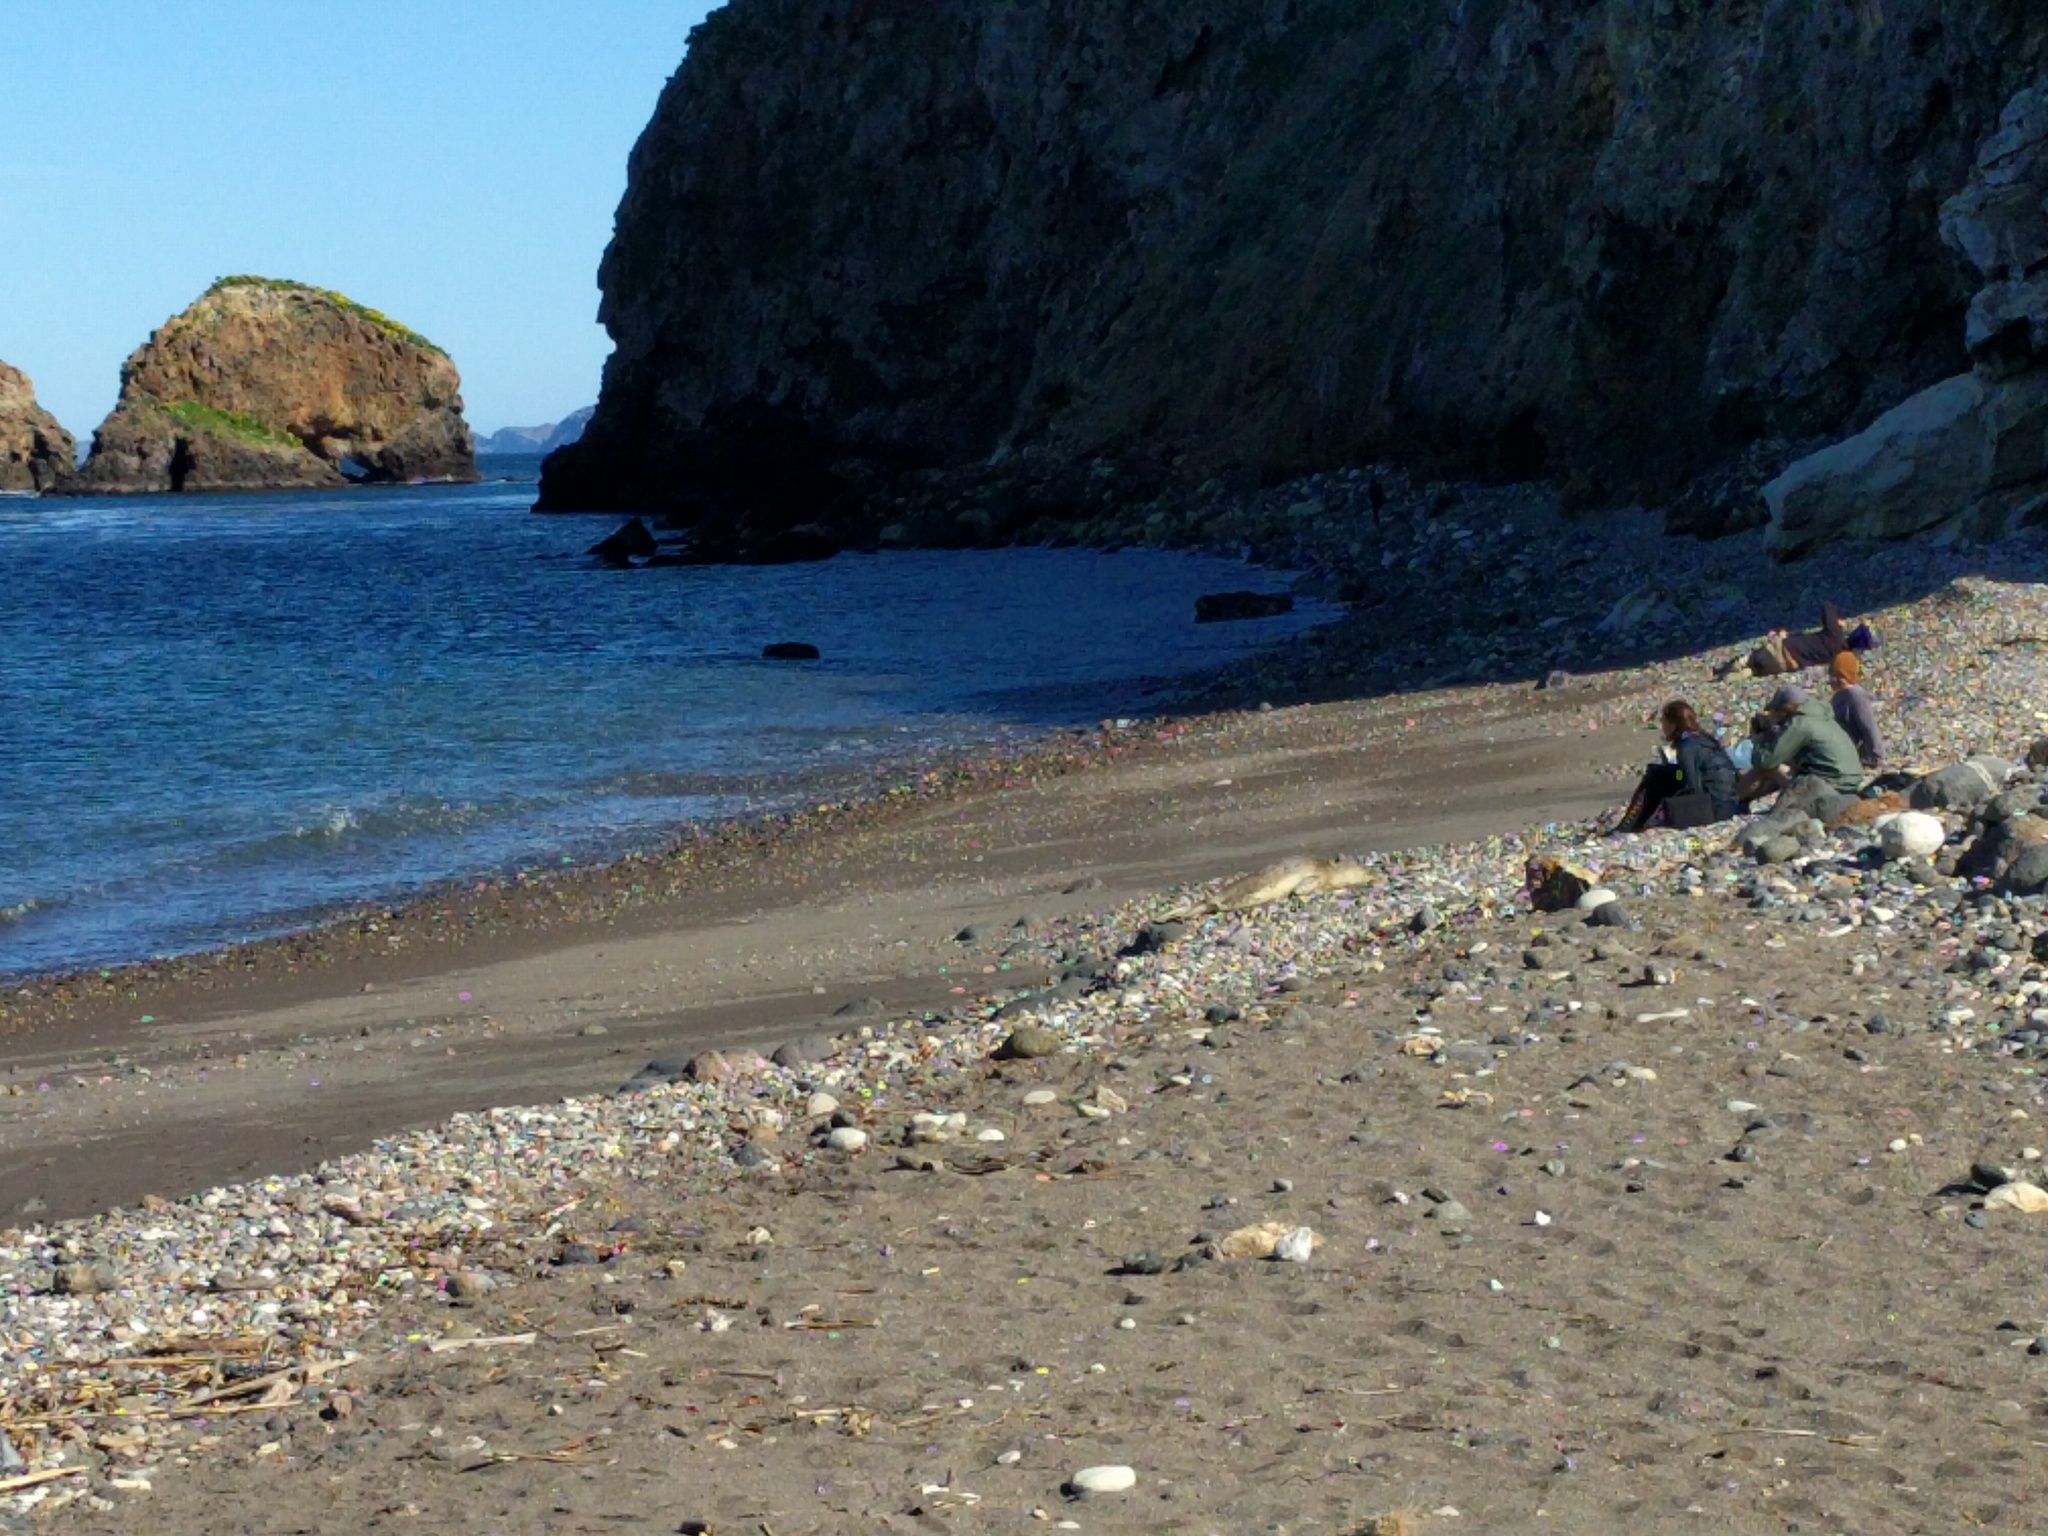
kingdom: Animalia
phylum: Chordata
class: Mammalia
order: Carnivora
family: Phocidae
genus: Phoca
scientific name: Phoca vitulina
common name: Harbor seal
